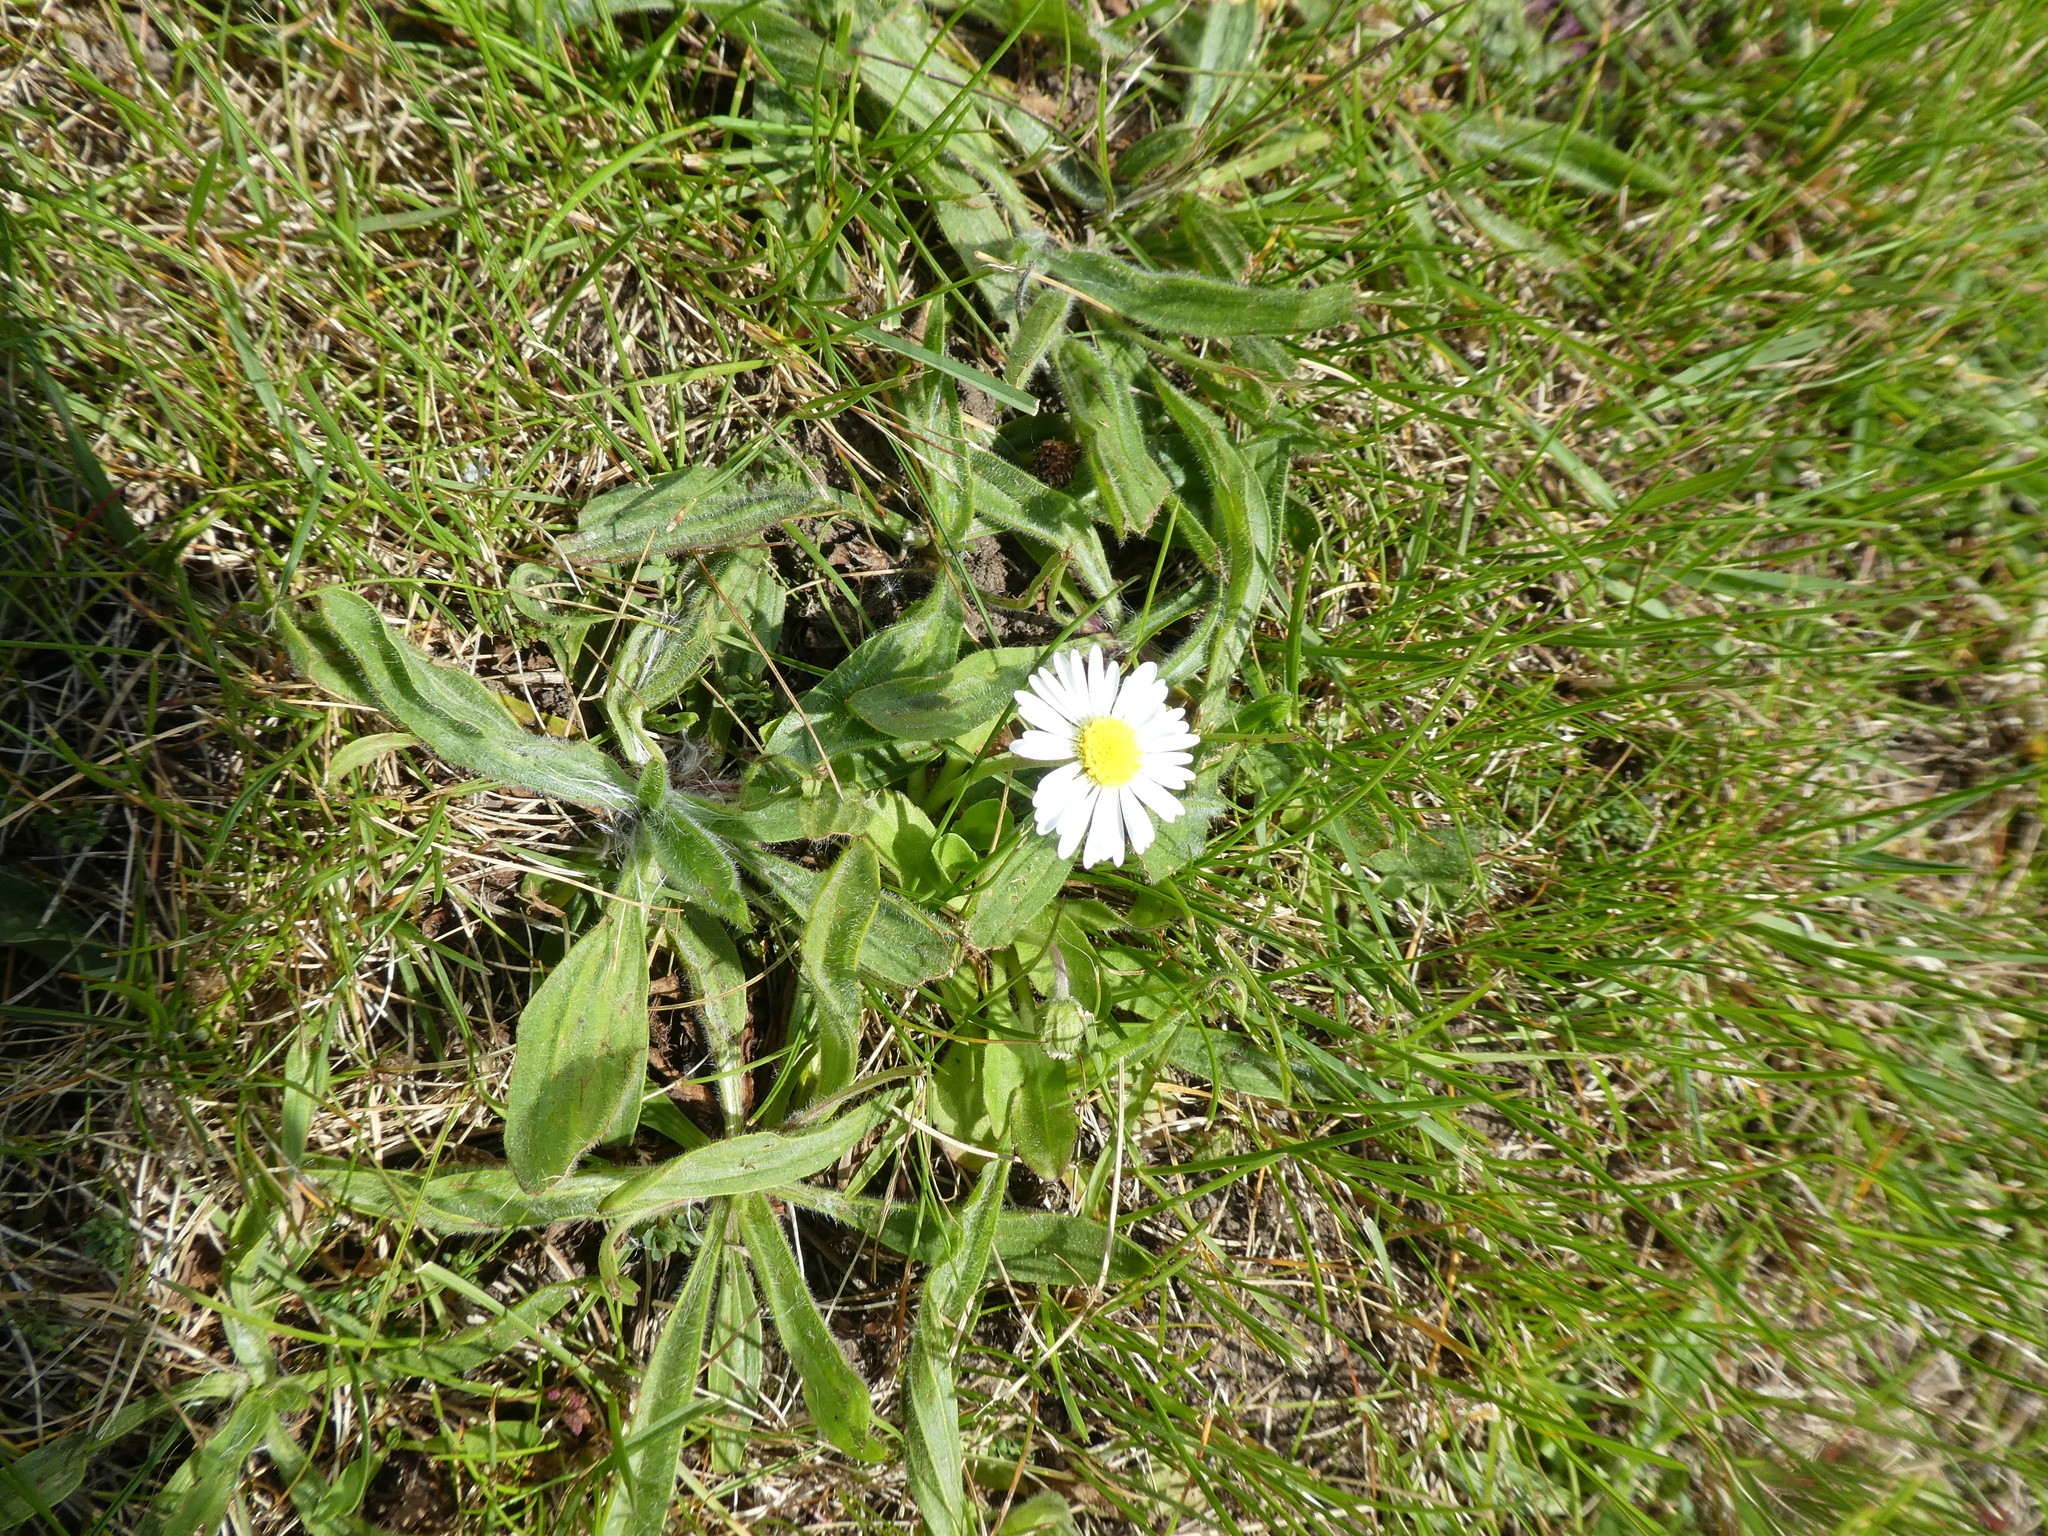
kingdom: Plantae
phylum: Tracheophyta
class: Magnoliopsida
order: Asterales
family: Asteraceae
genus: Bellis
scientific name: Bellis perennis
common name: Lawndaisy
